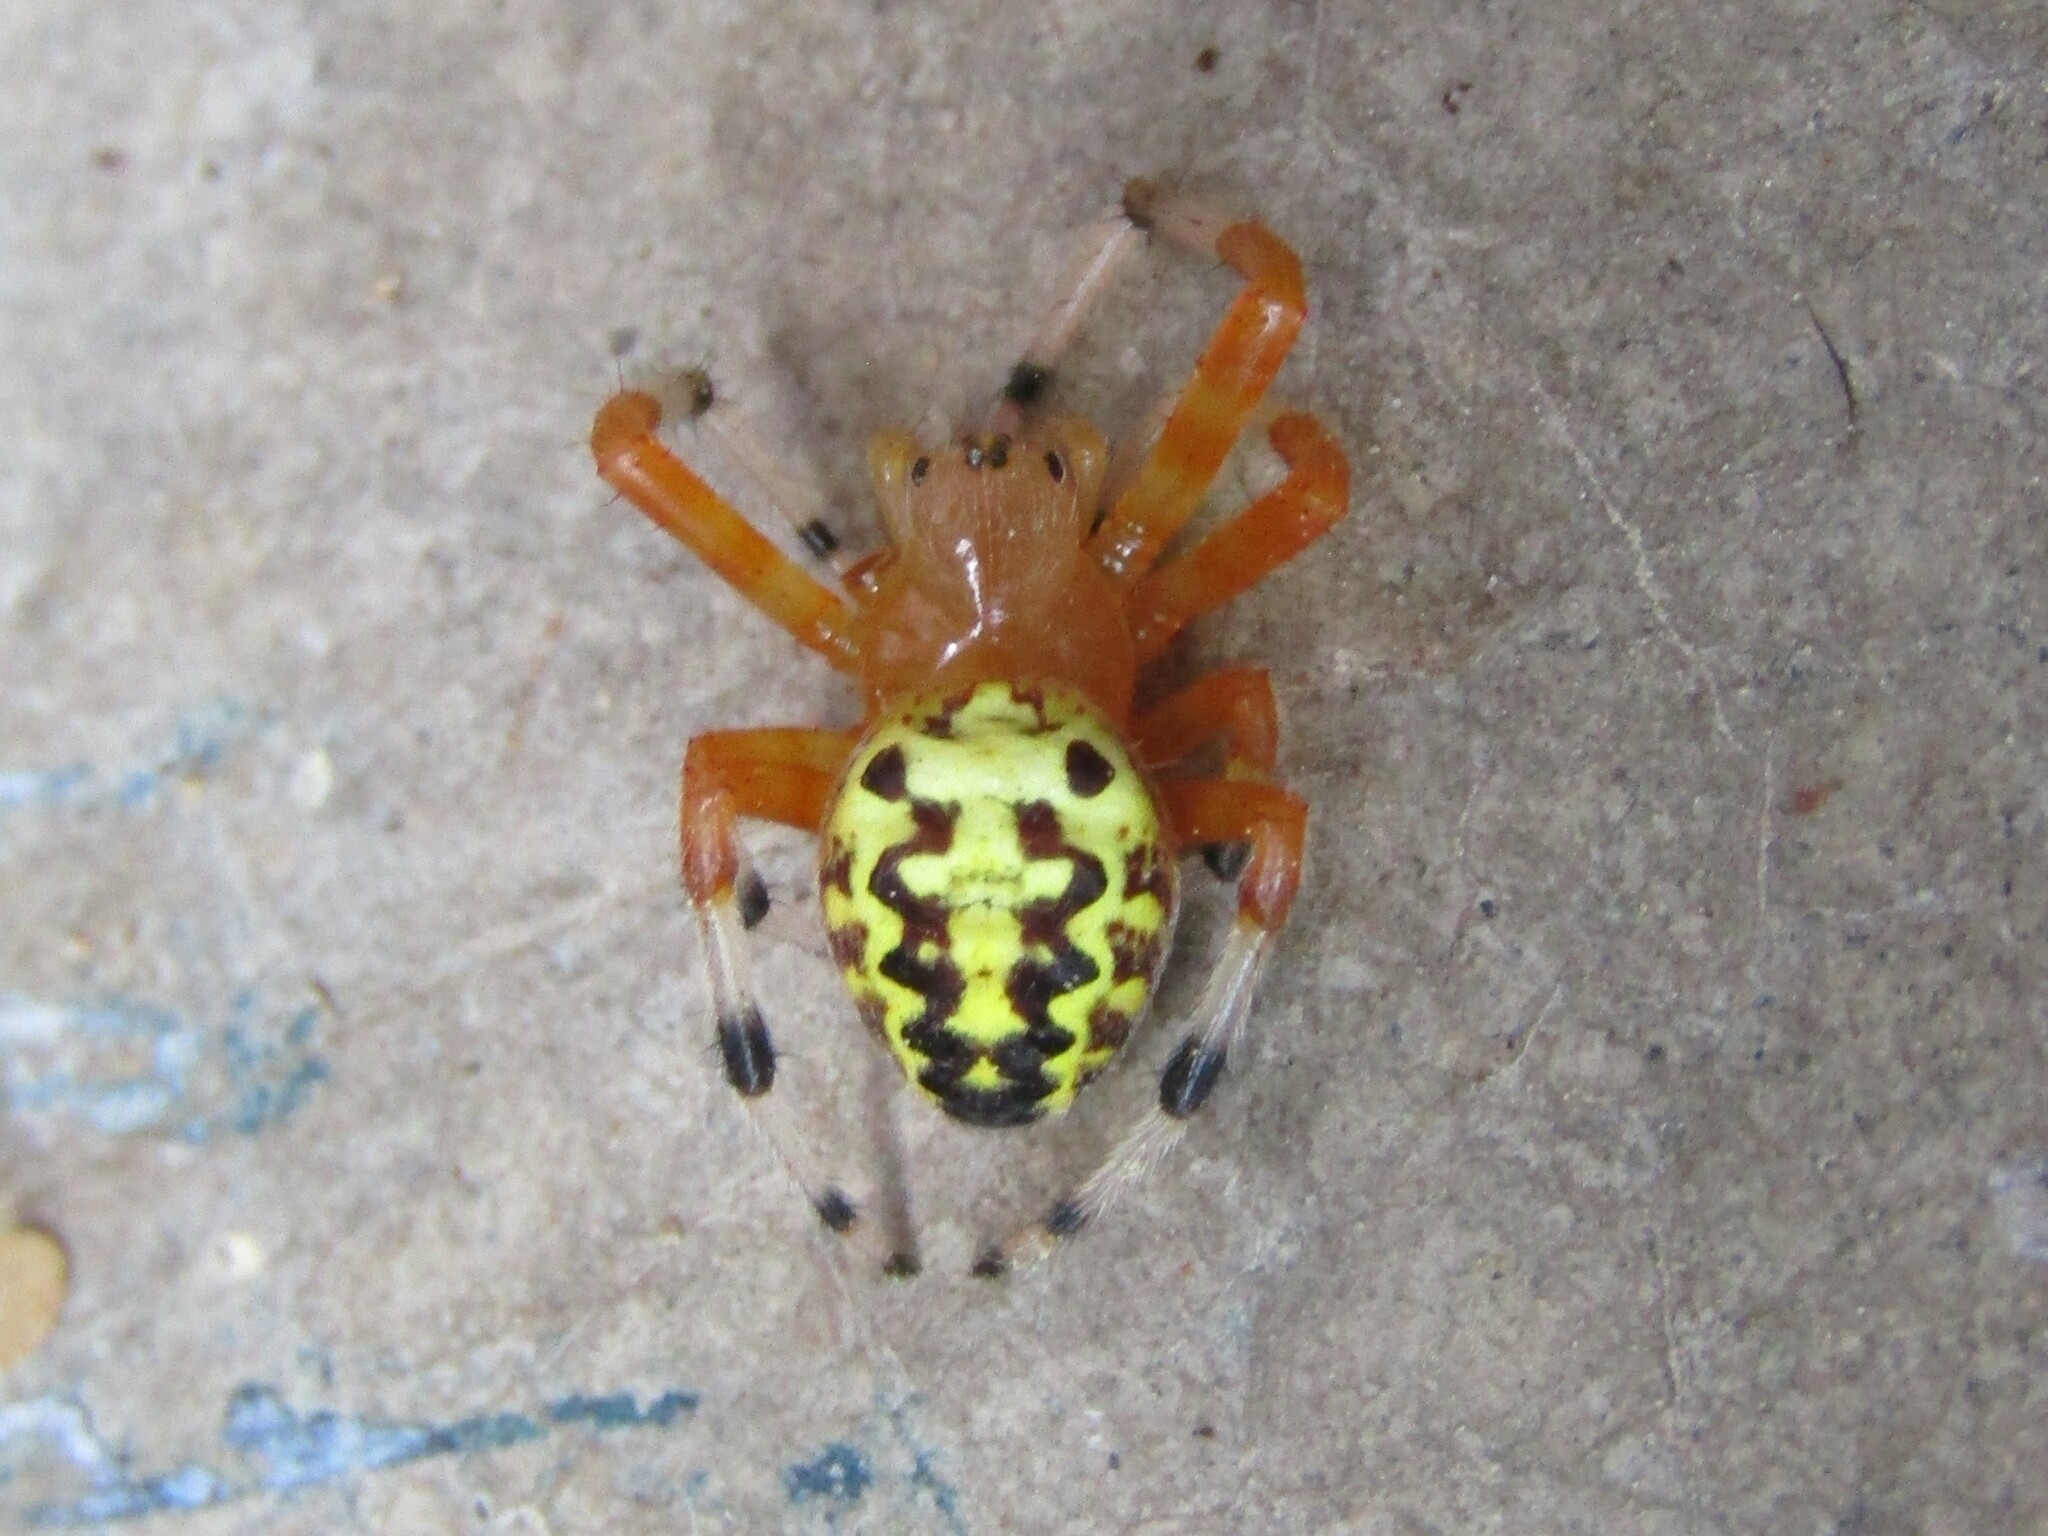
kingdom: Animalia
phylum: Arthropoda
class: Arachnida
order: Araneae
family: Araneidae
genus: Araneus
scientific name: Araneus marmoreus
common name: Marbled orbweaver
